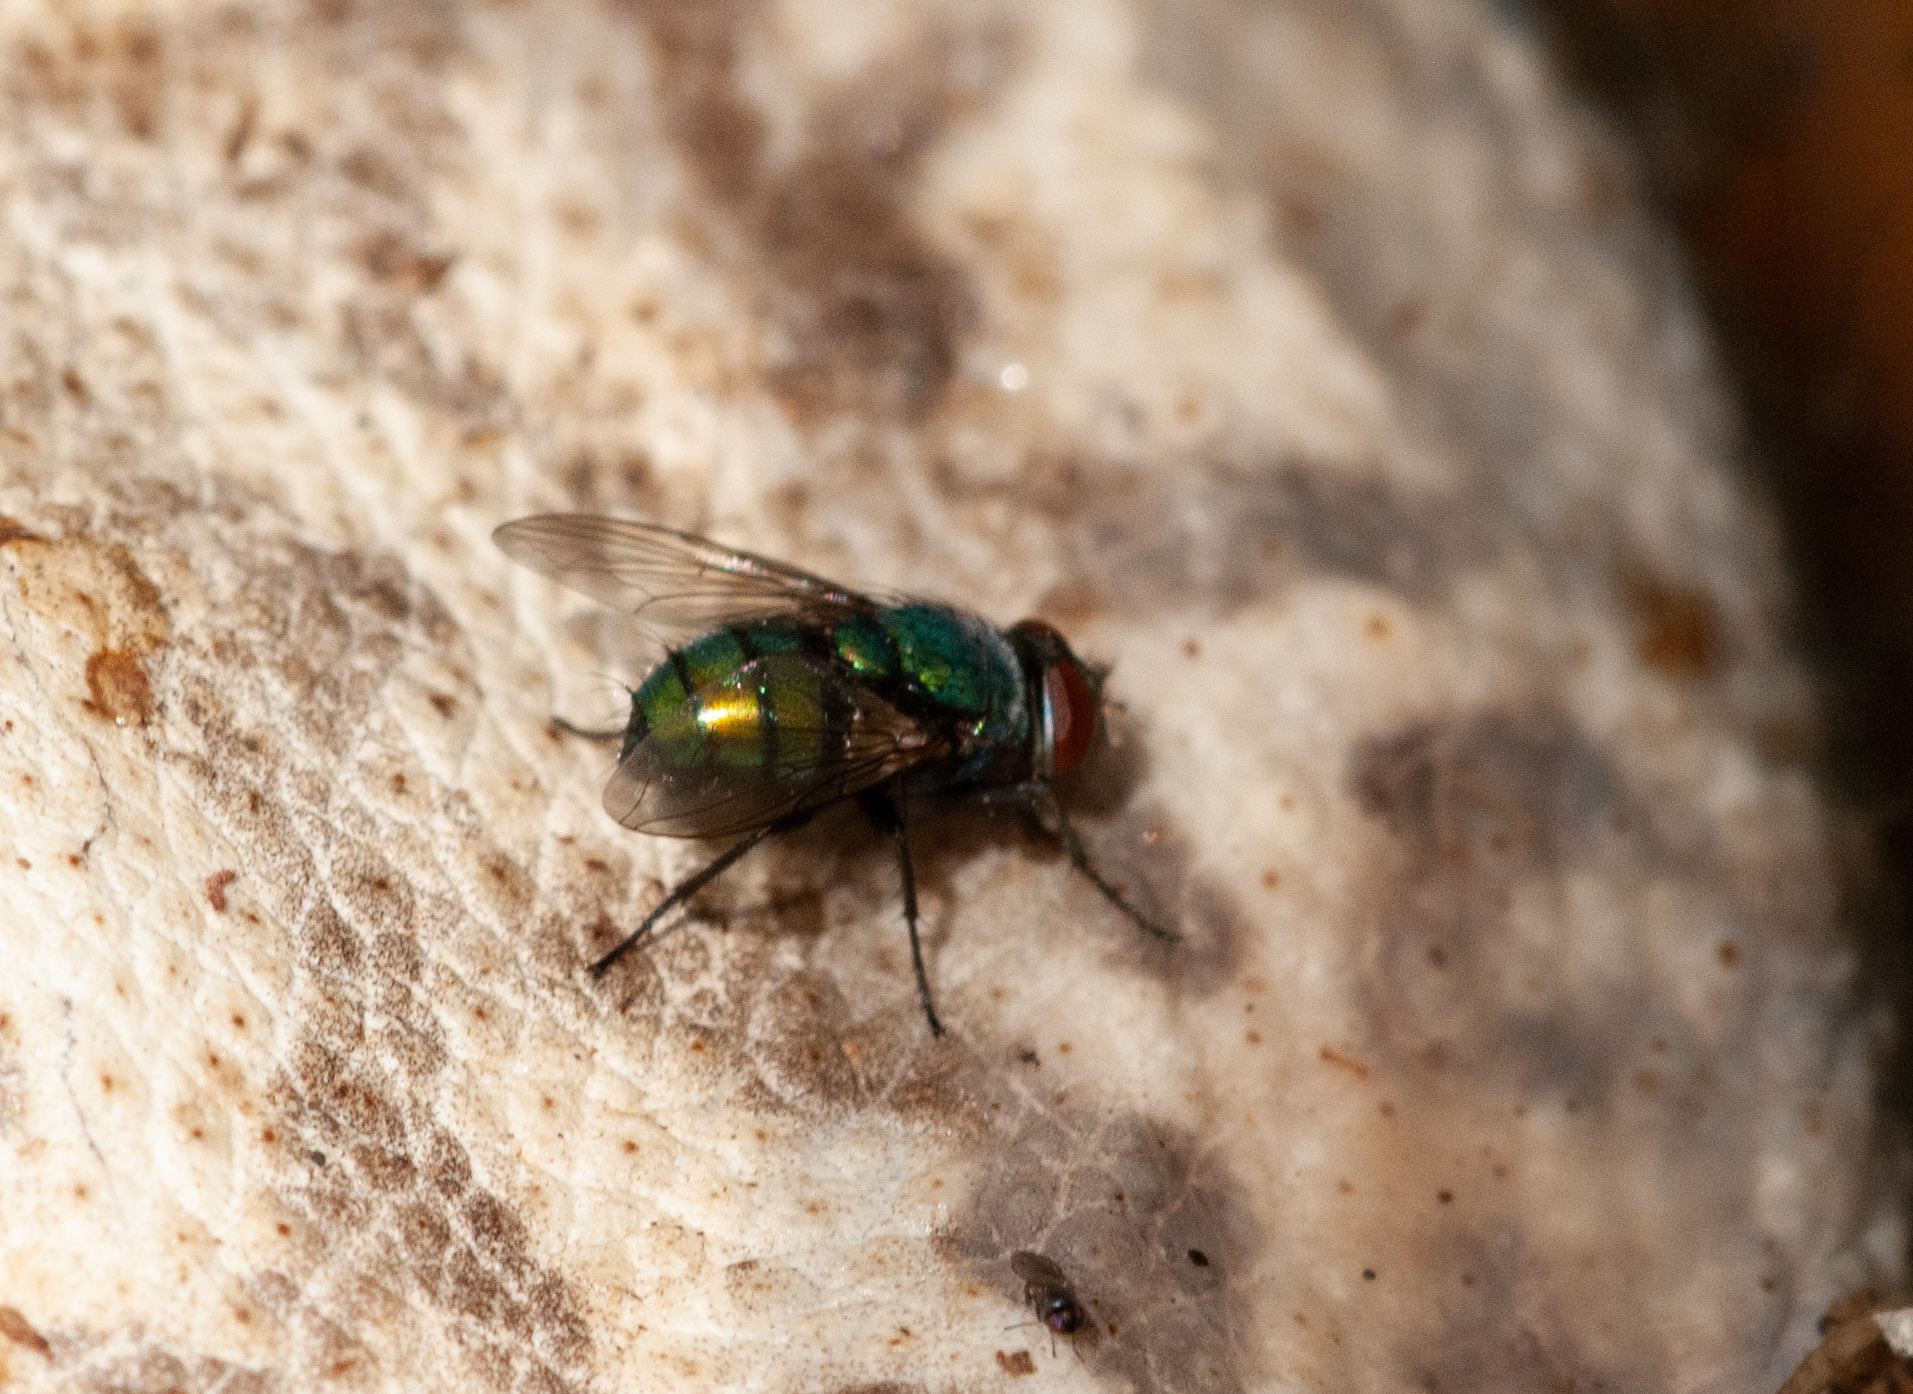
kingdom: Animalia
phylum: Arthropoda
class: Insecta
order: Diptera
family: Calliphoridae
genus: Lucilia
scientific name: Lucilia sericata
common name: Blow fly
